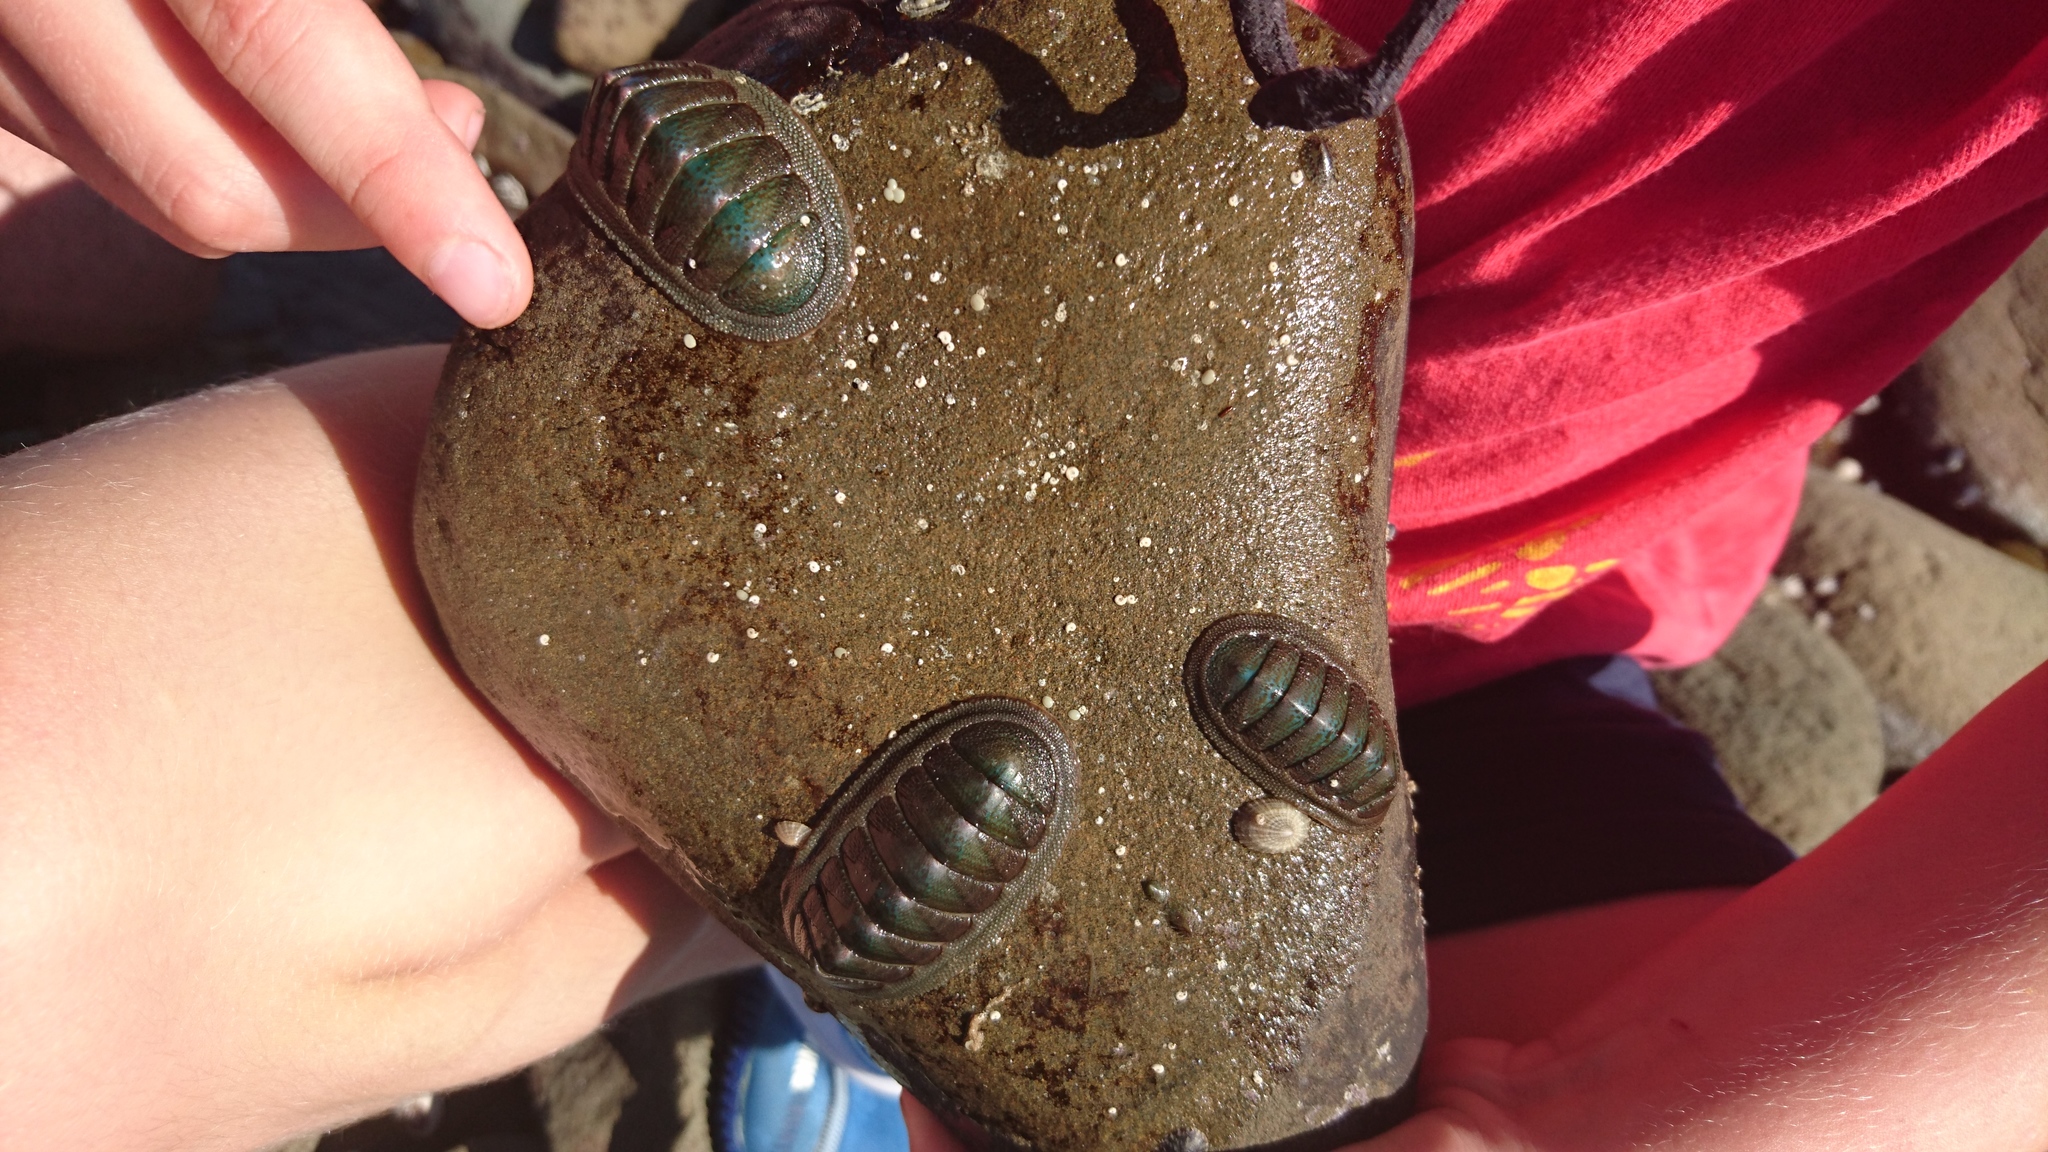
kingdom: Animalia
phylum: Mollusca
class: Polyplacophora
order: Chitonida
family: Ischnochitonidae
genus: Ischnochiton
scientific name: Ischnochiton australis
